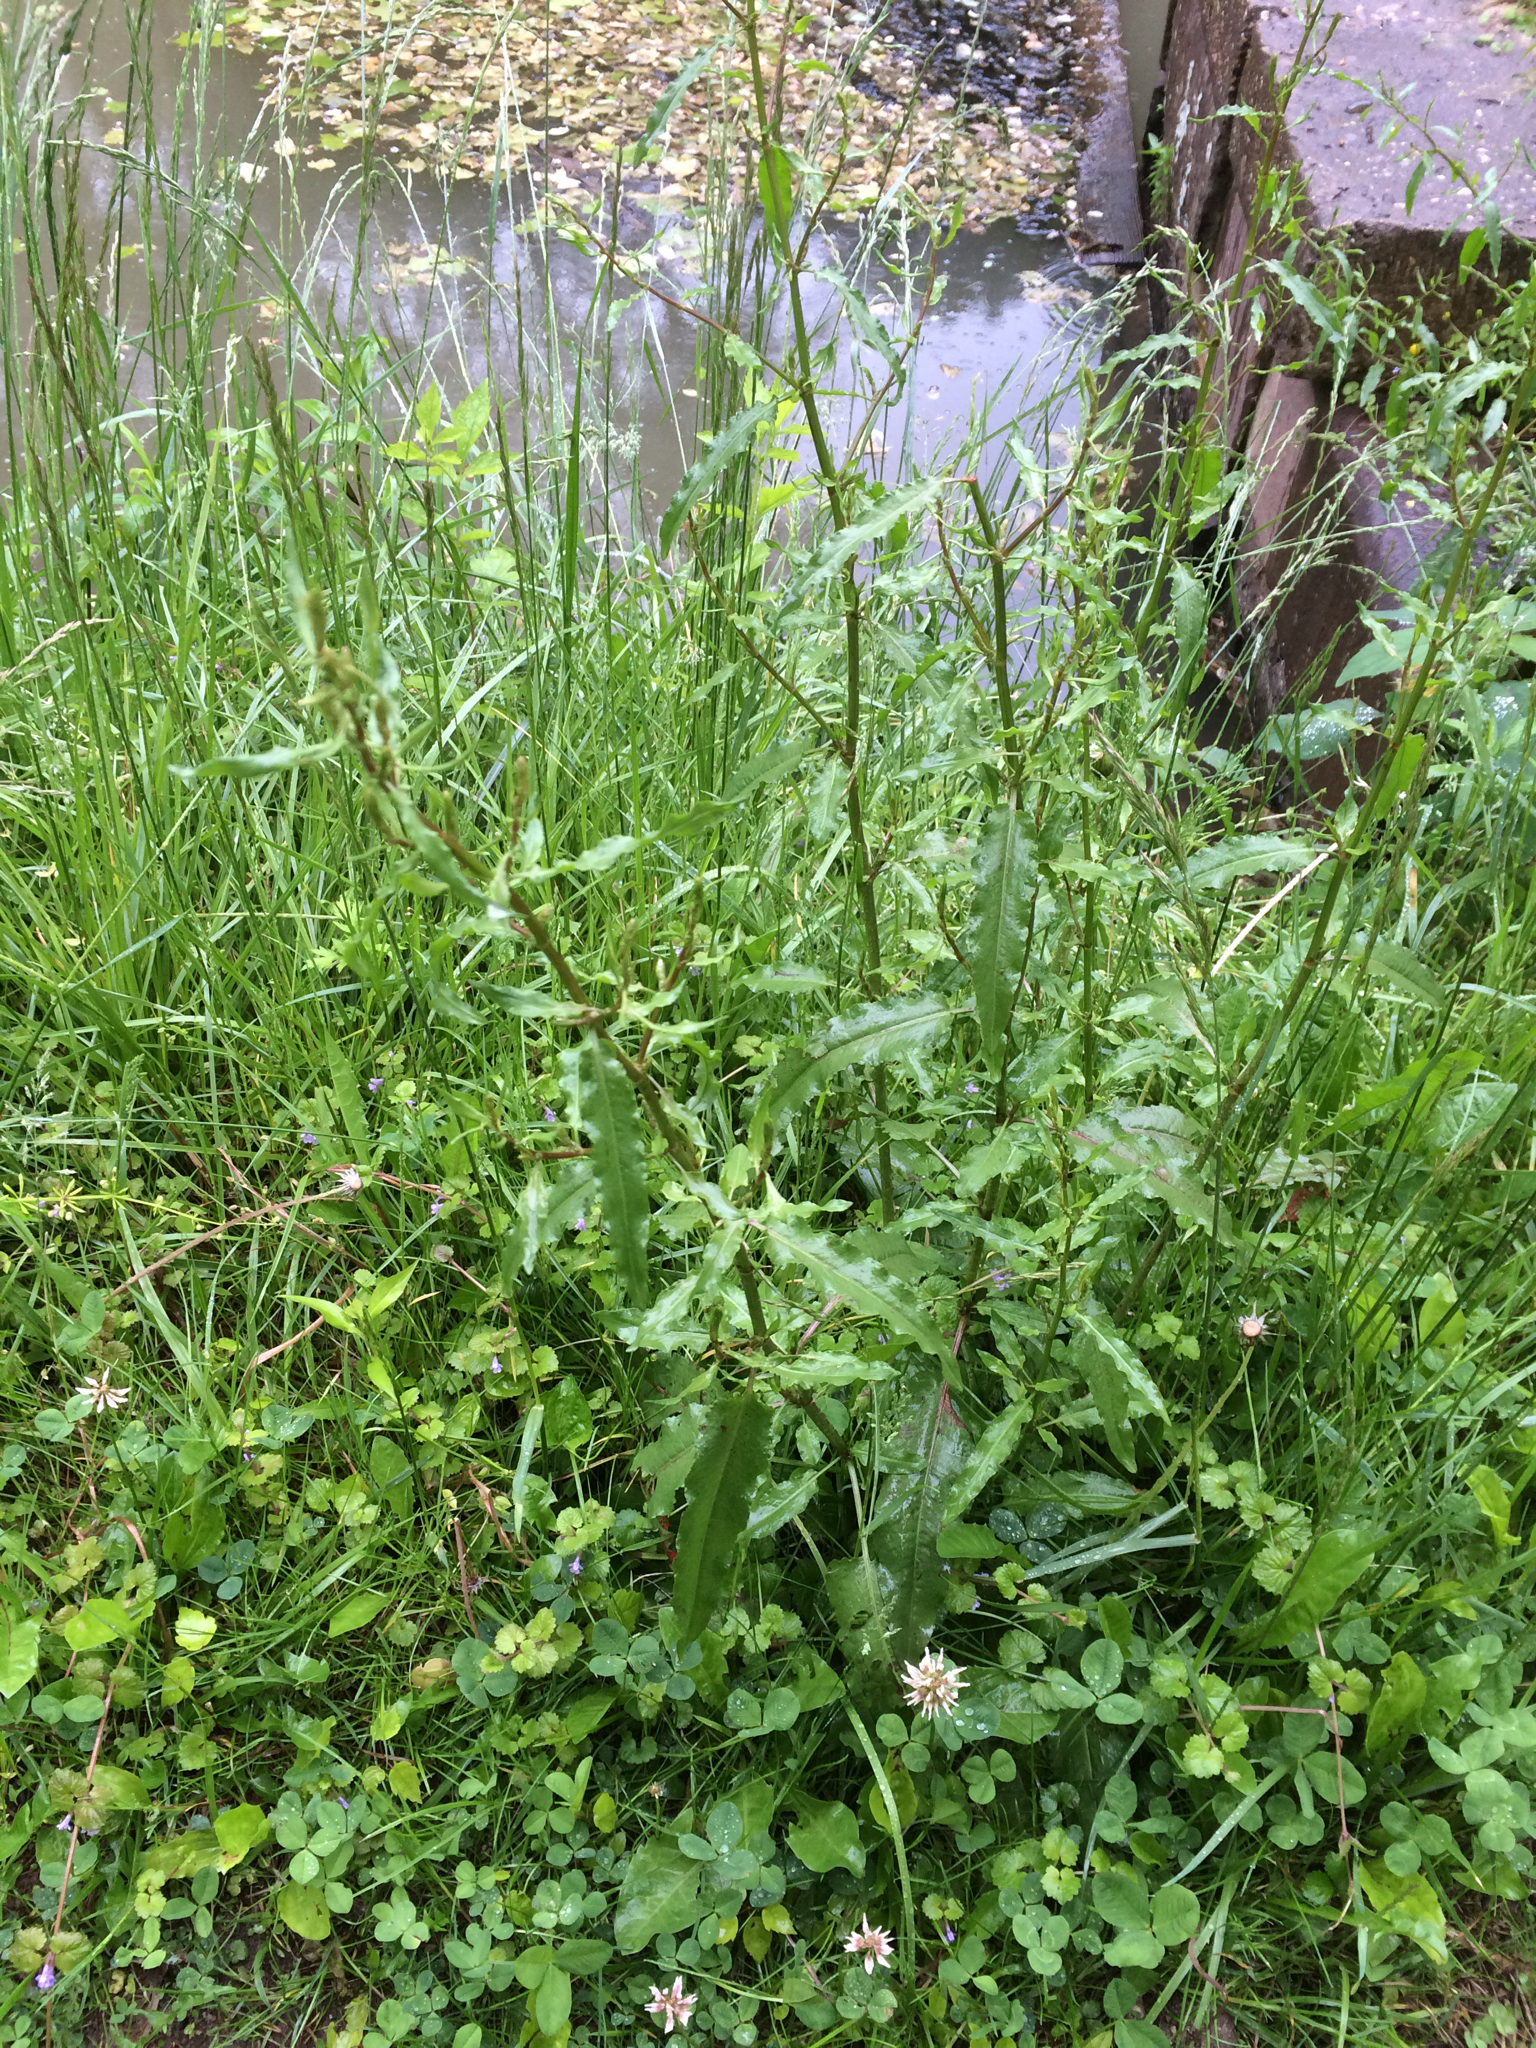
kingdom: Plantae
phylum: Tracheophyta
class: Magnoliopsida
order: Caryophyllales
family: Polygonaceae
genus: Rumex
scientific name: Rumex crispus
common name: Curled dock
